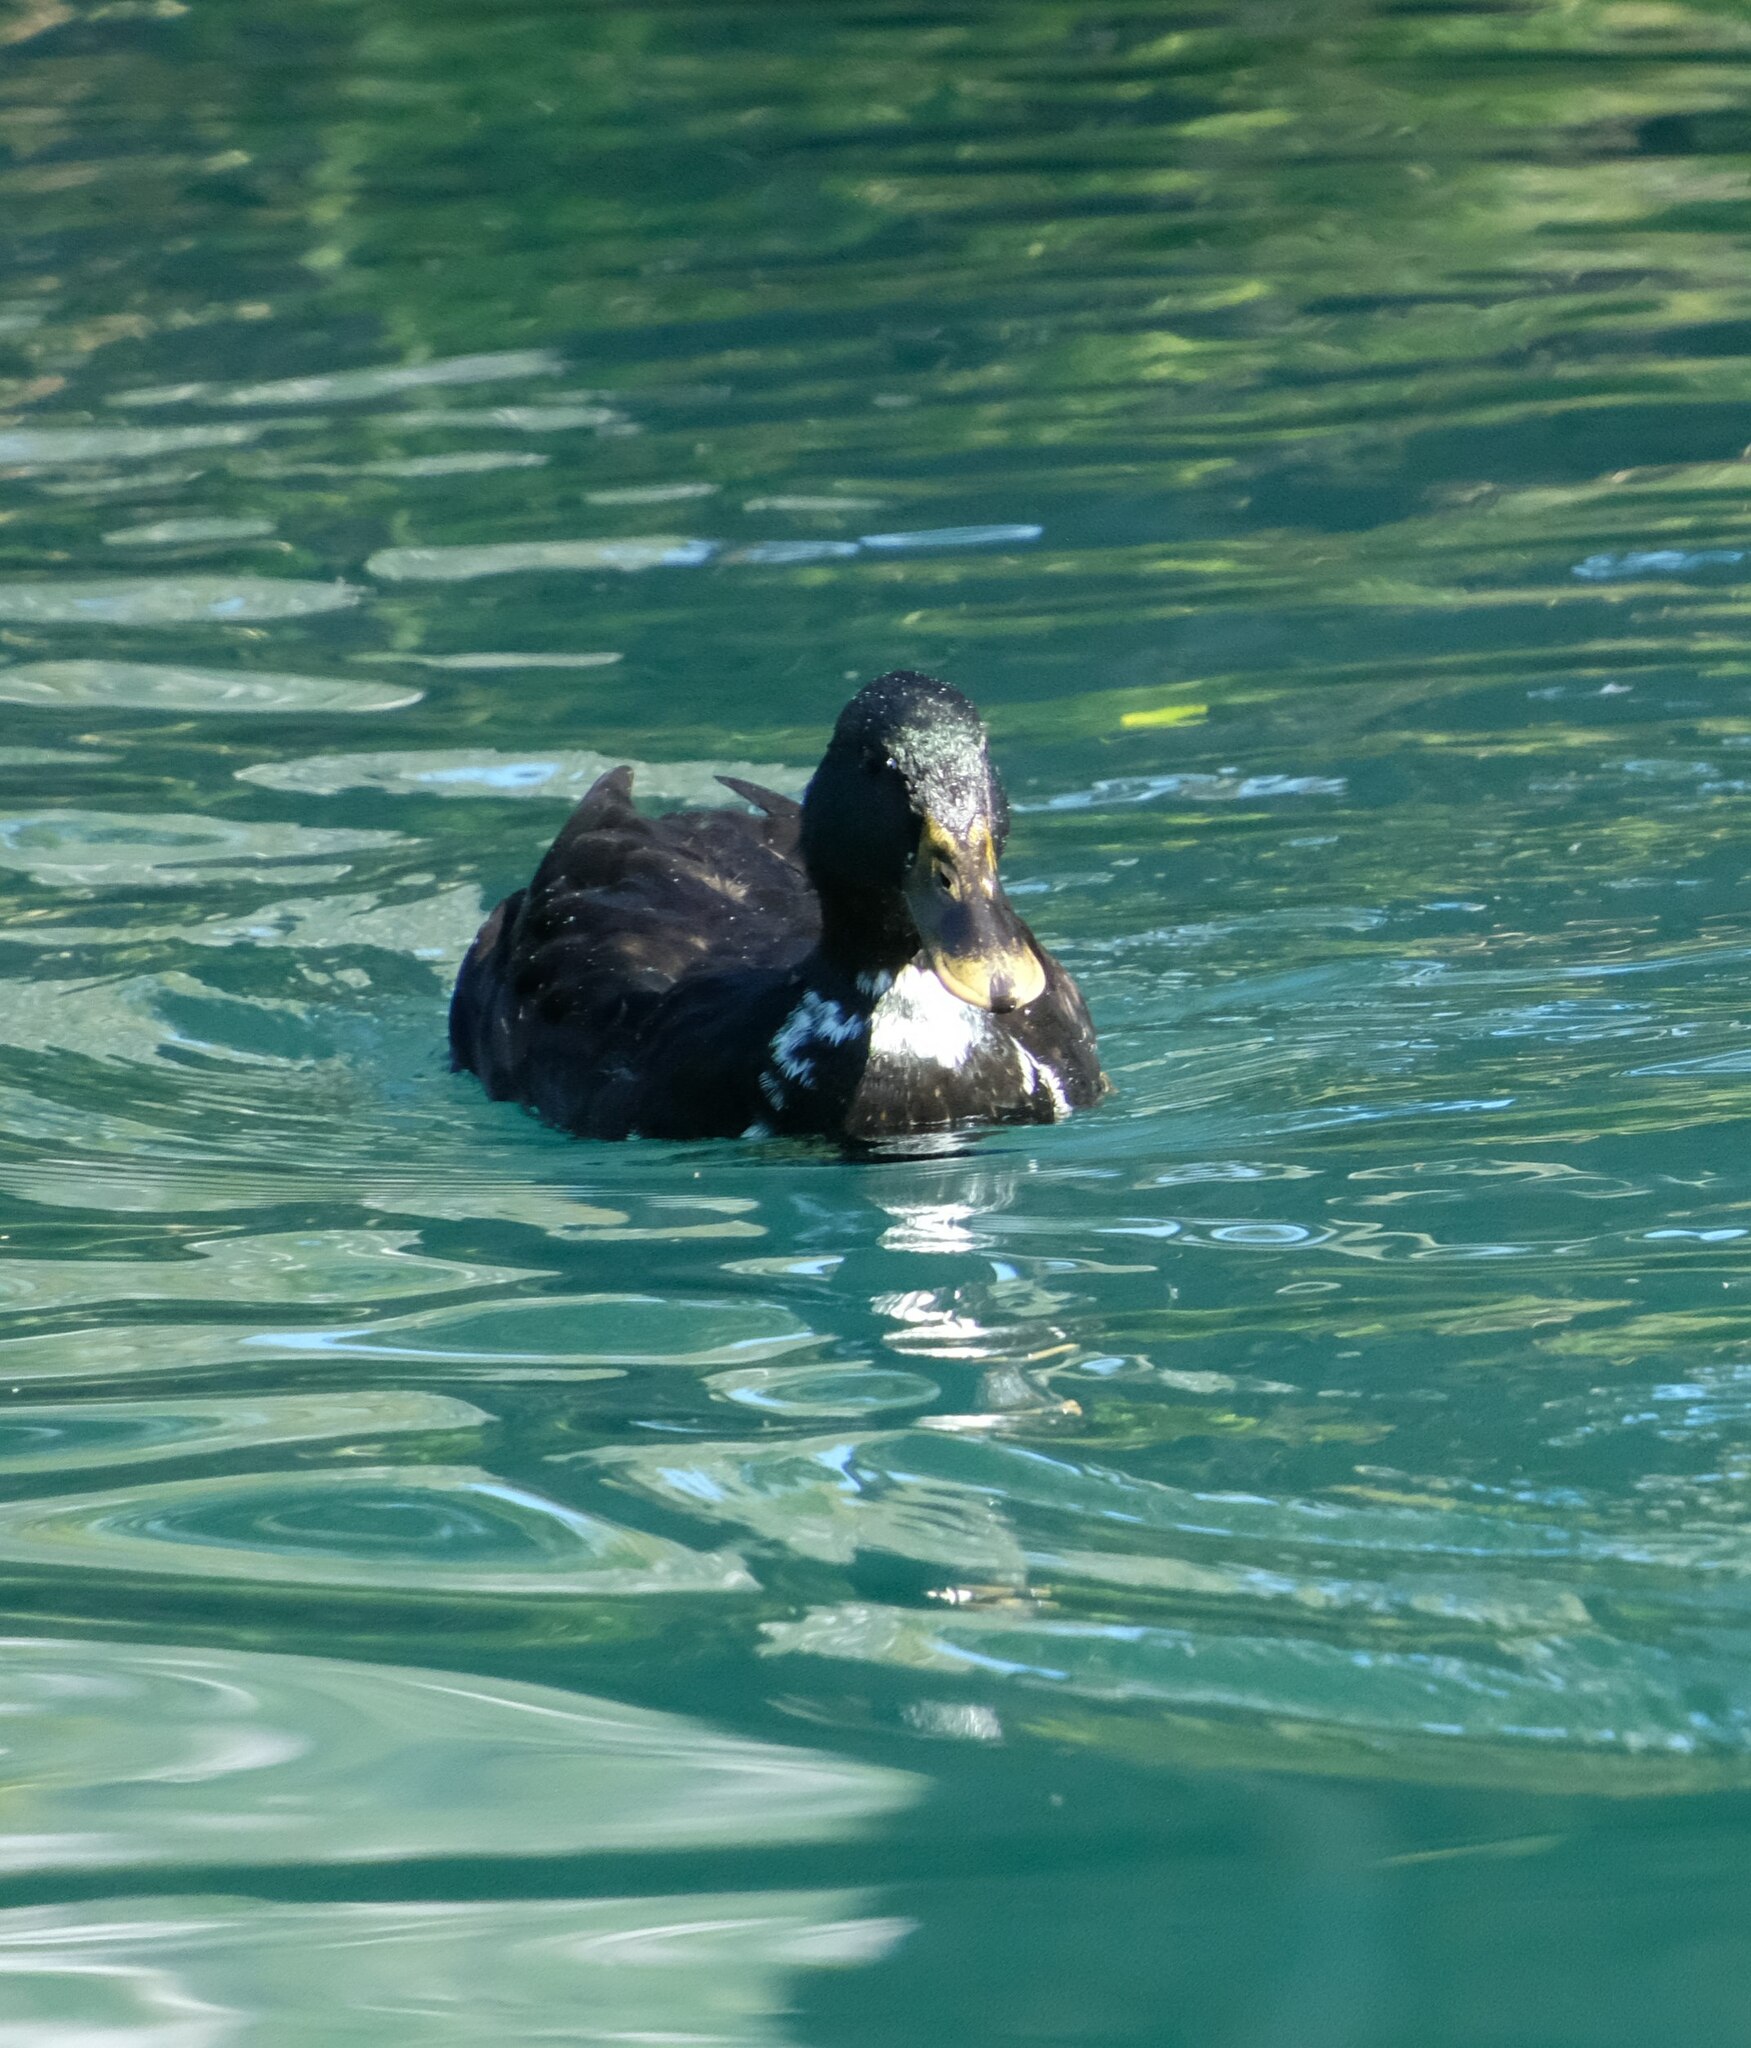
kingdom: Animalia
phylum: Chordata
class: Aves
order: Anseriformes
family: Anatidae
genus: Anas
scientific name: Anas platyrhynchos
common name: Mallard
